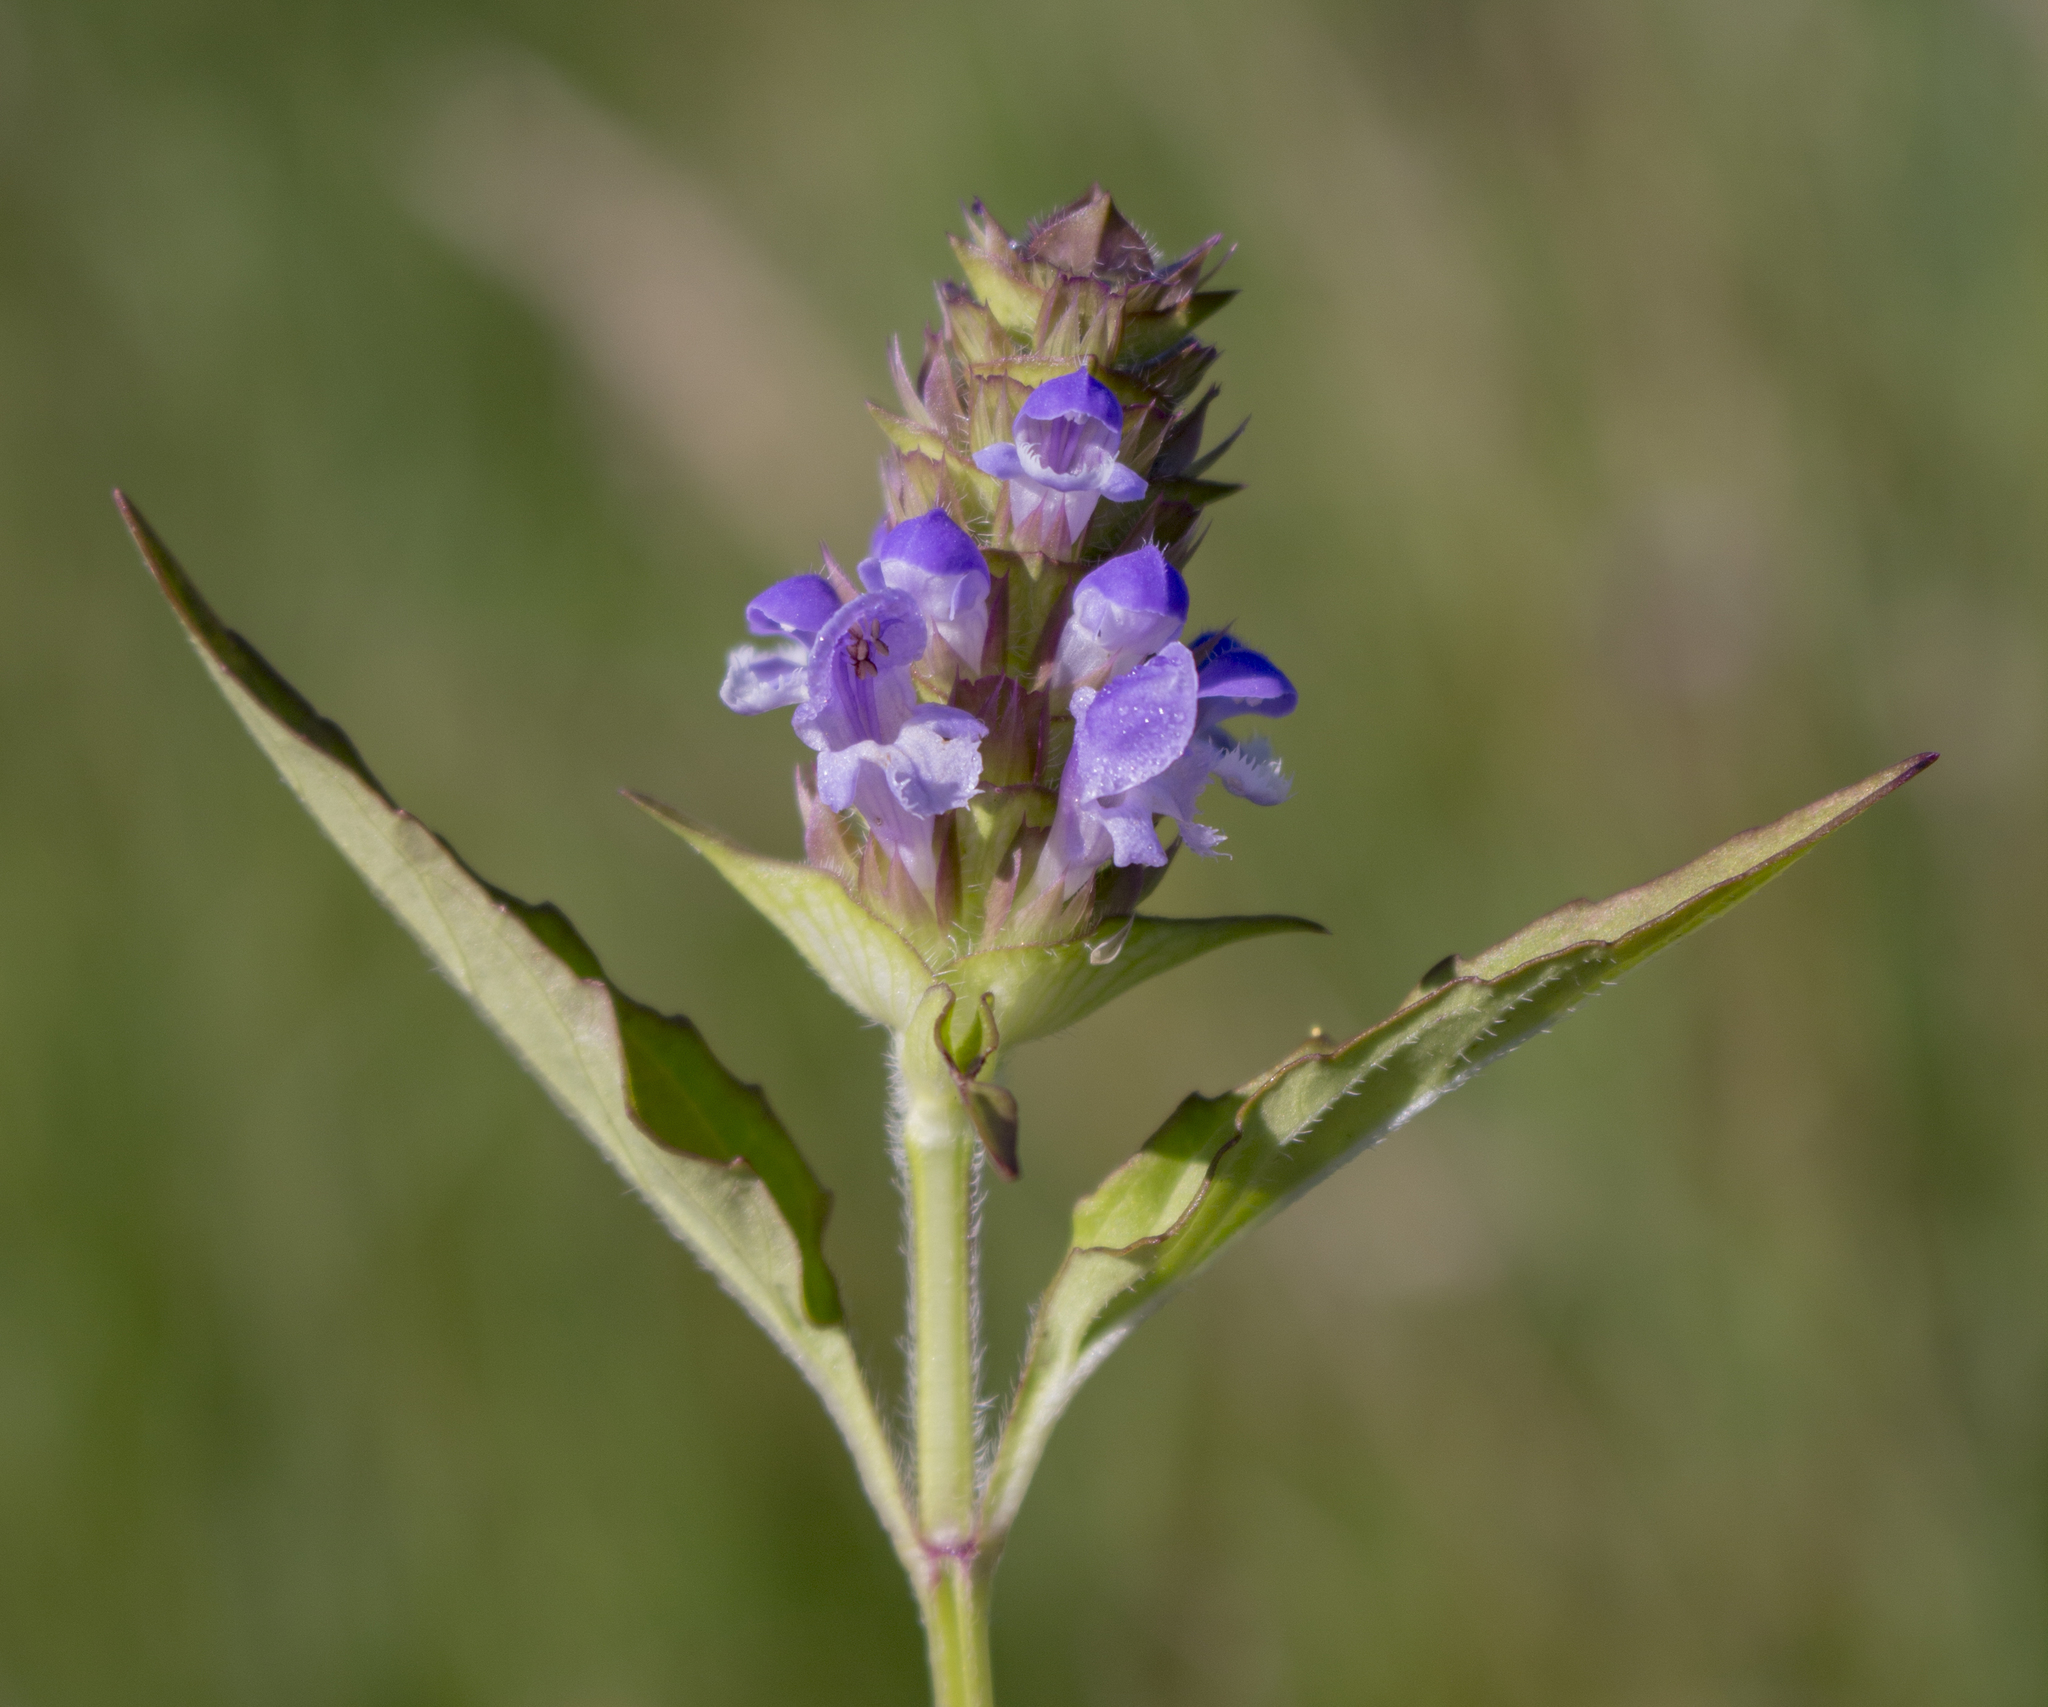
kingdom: Plantae
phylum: Tracheophyta
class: Magnoliopsida
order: Lamiales
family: Lamiaceae
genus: Prunella
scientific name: Prunella vulgaris
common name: Heal-all
